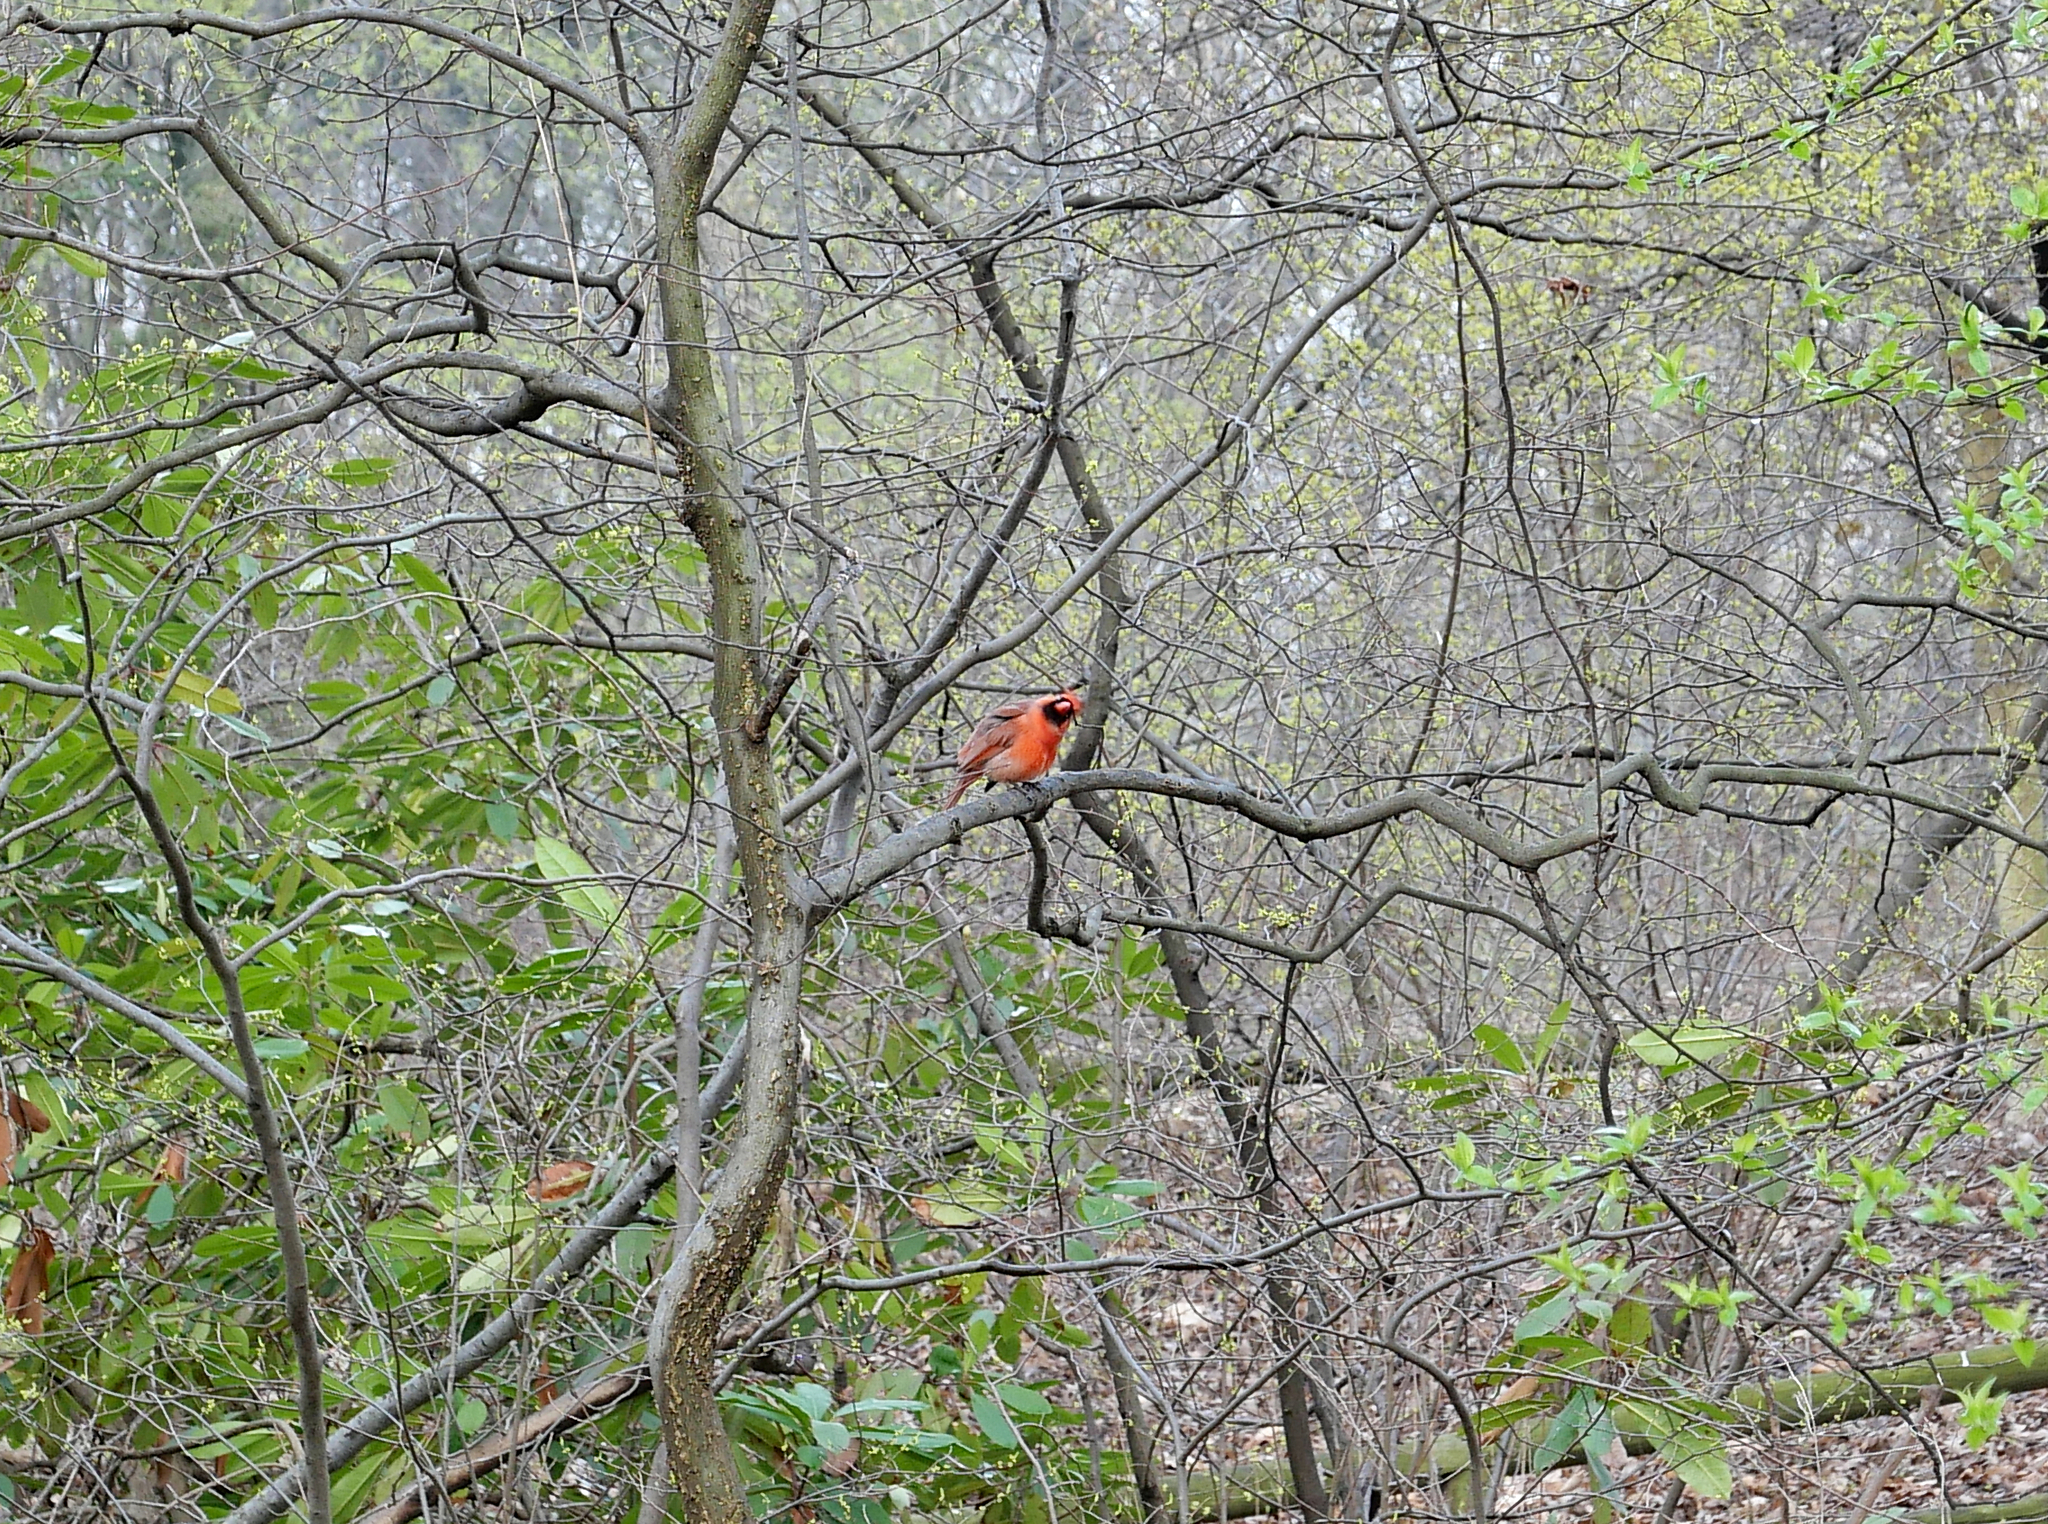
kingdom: Animalia
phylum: Chordata
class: Aves
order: Passeriformes
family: Cardinalidae
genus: Cardinalis
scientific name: Cardinalis cardinalis
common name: Northern cardinal
